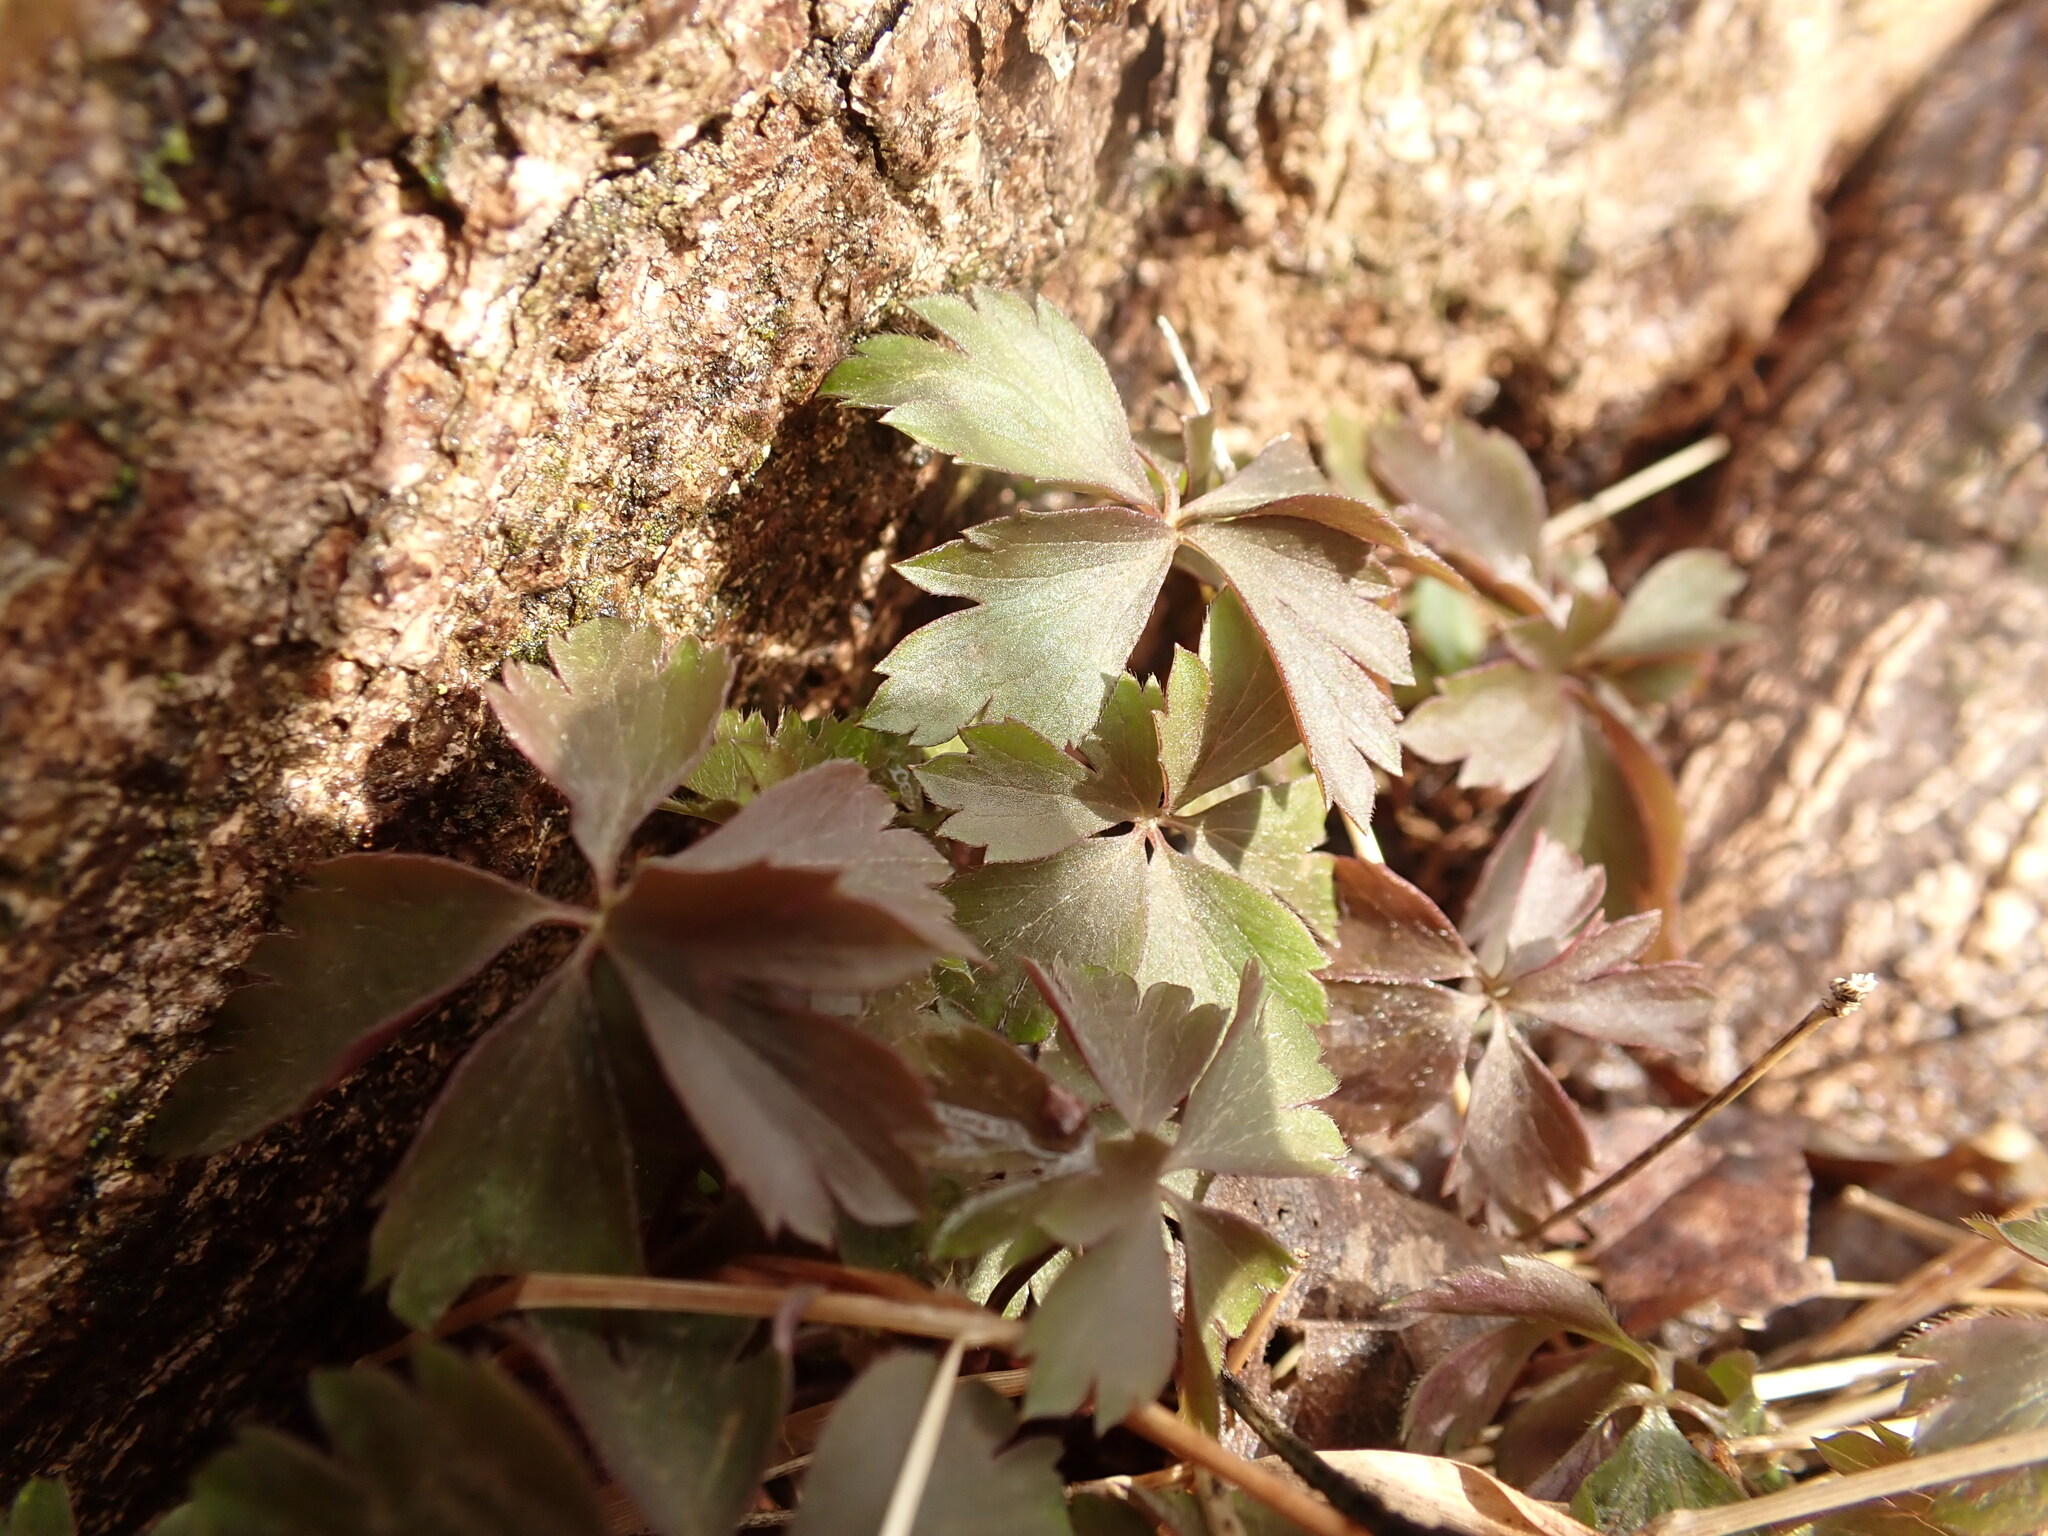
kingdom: Plantae
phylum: Tracheophyta
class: Magnoliopsida
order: Ranunculales
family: Ranunculaceae
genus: Anemone
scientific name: Anemone quinquefolia
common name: Wood anemone
